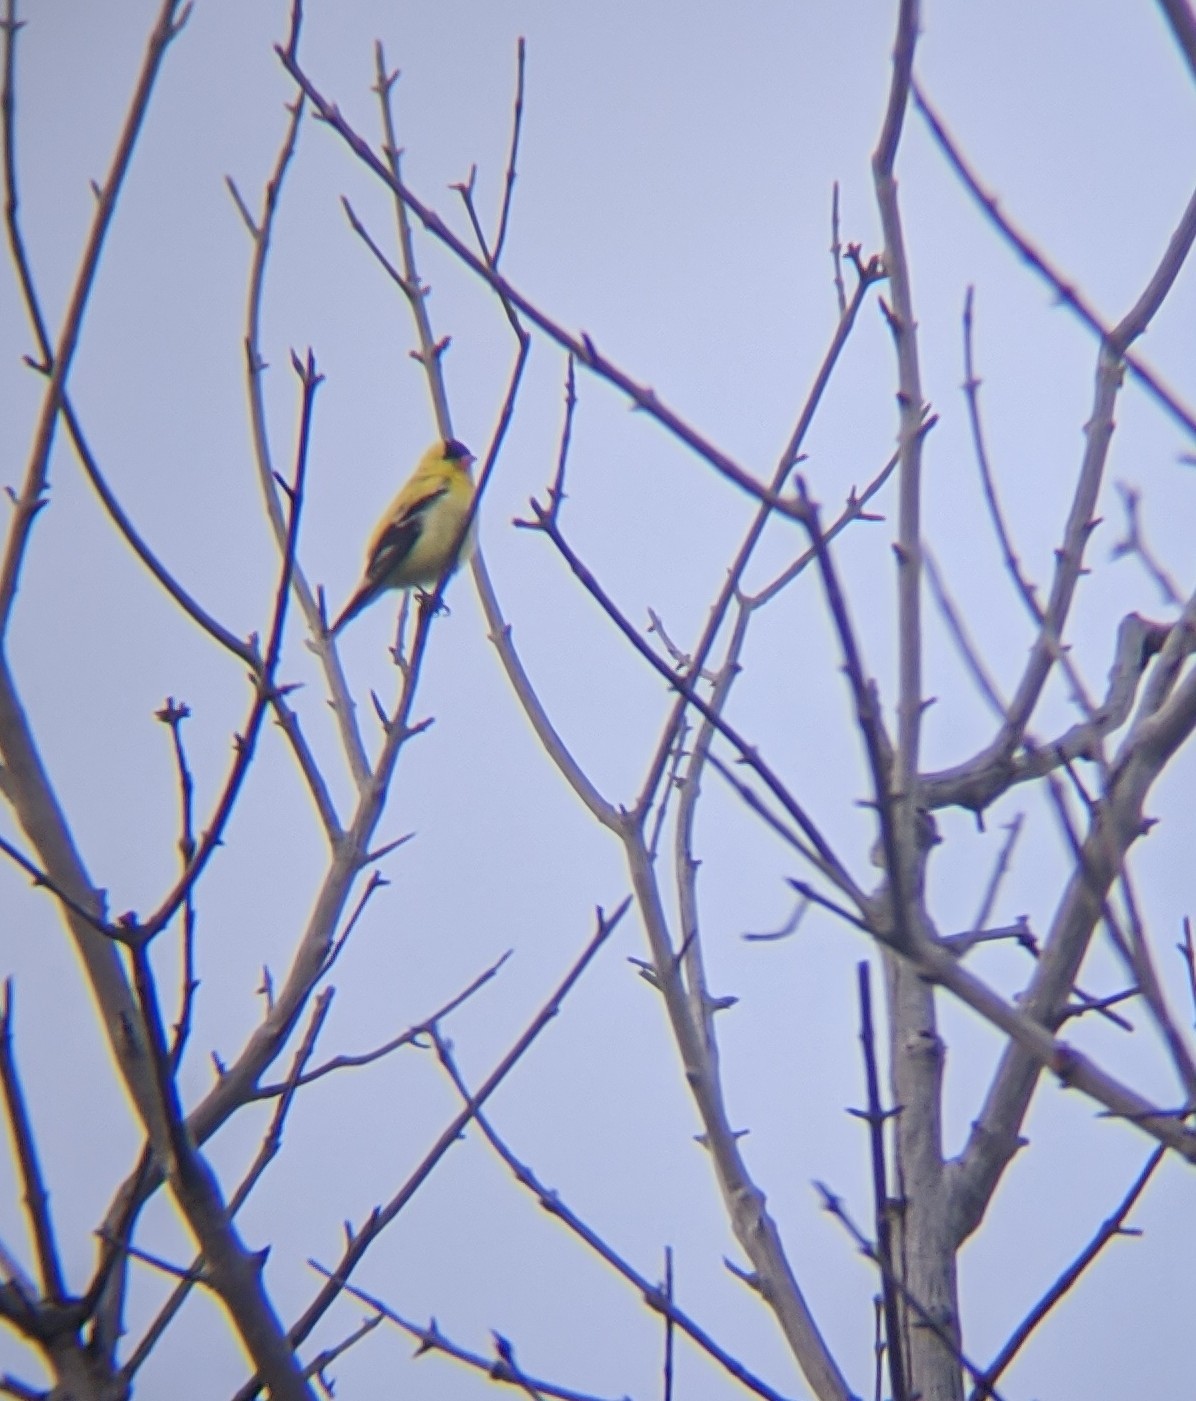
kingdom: Animalia
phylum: Chordata
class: Aves
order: Passeriformes
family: Fringillidae
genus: Spinus
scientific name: Spinus tristis
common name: American goldfinch
